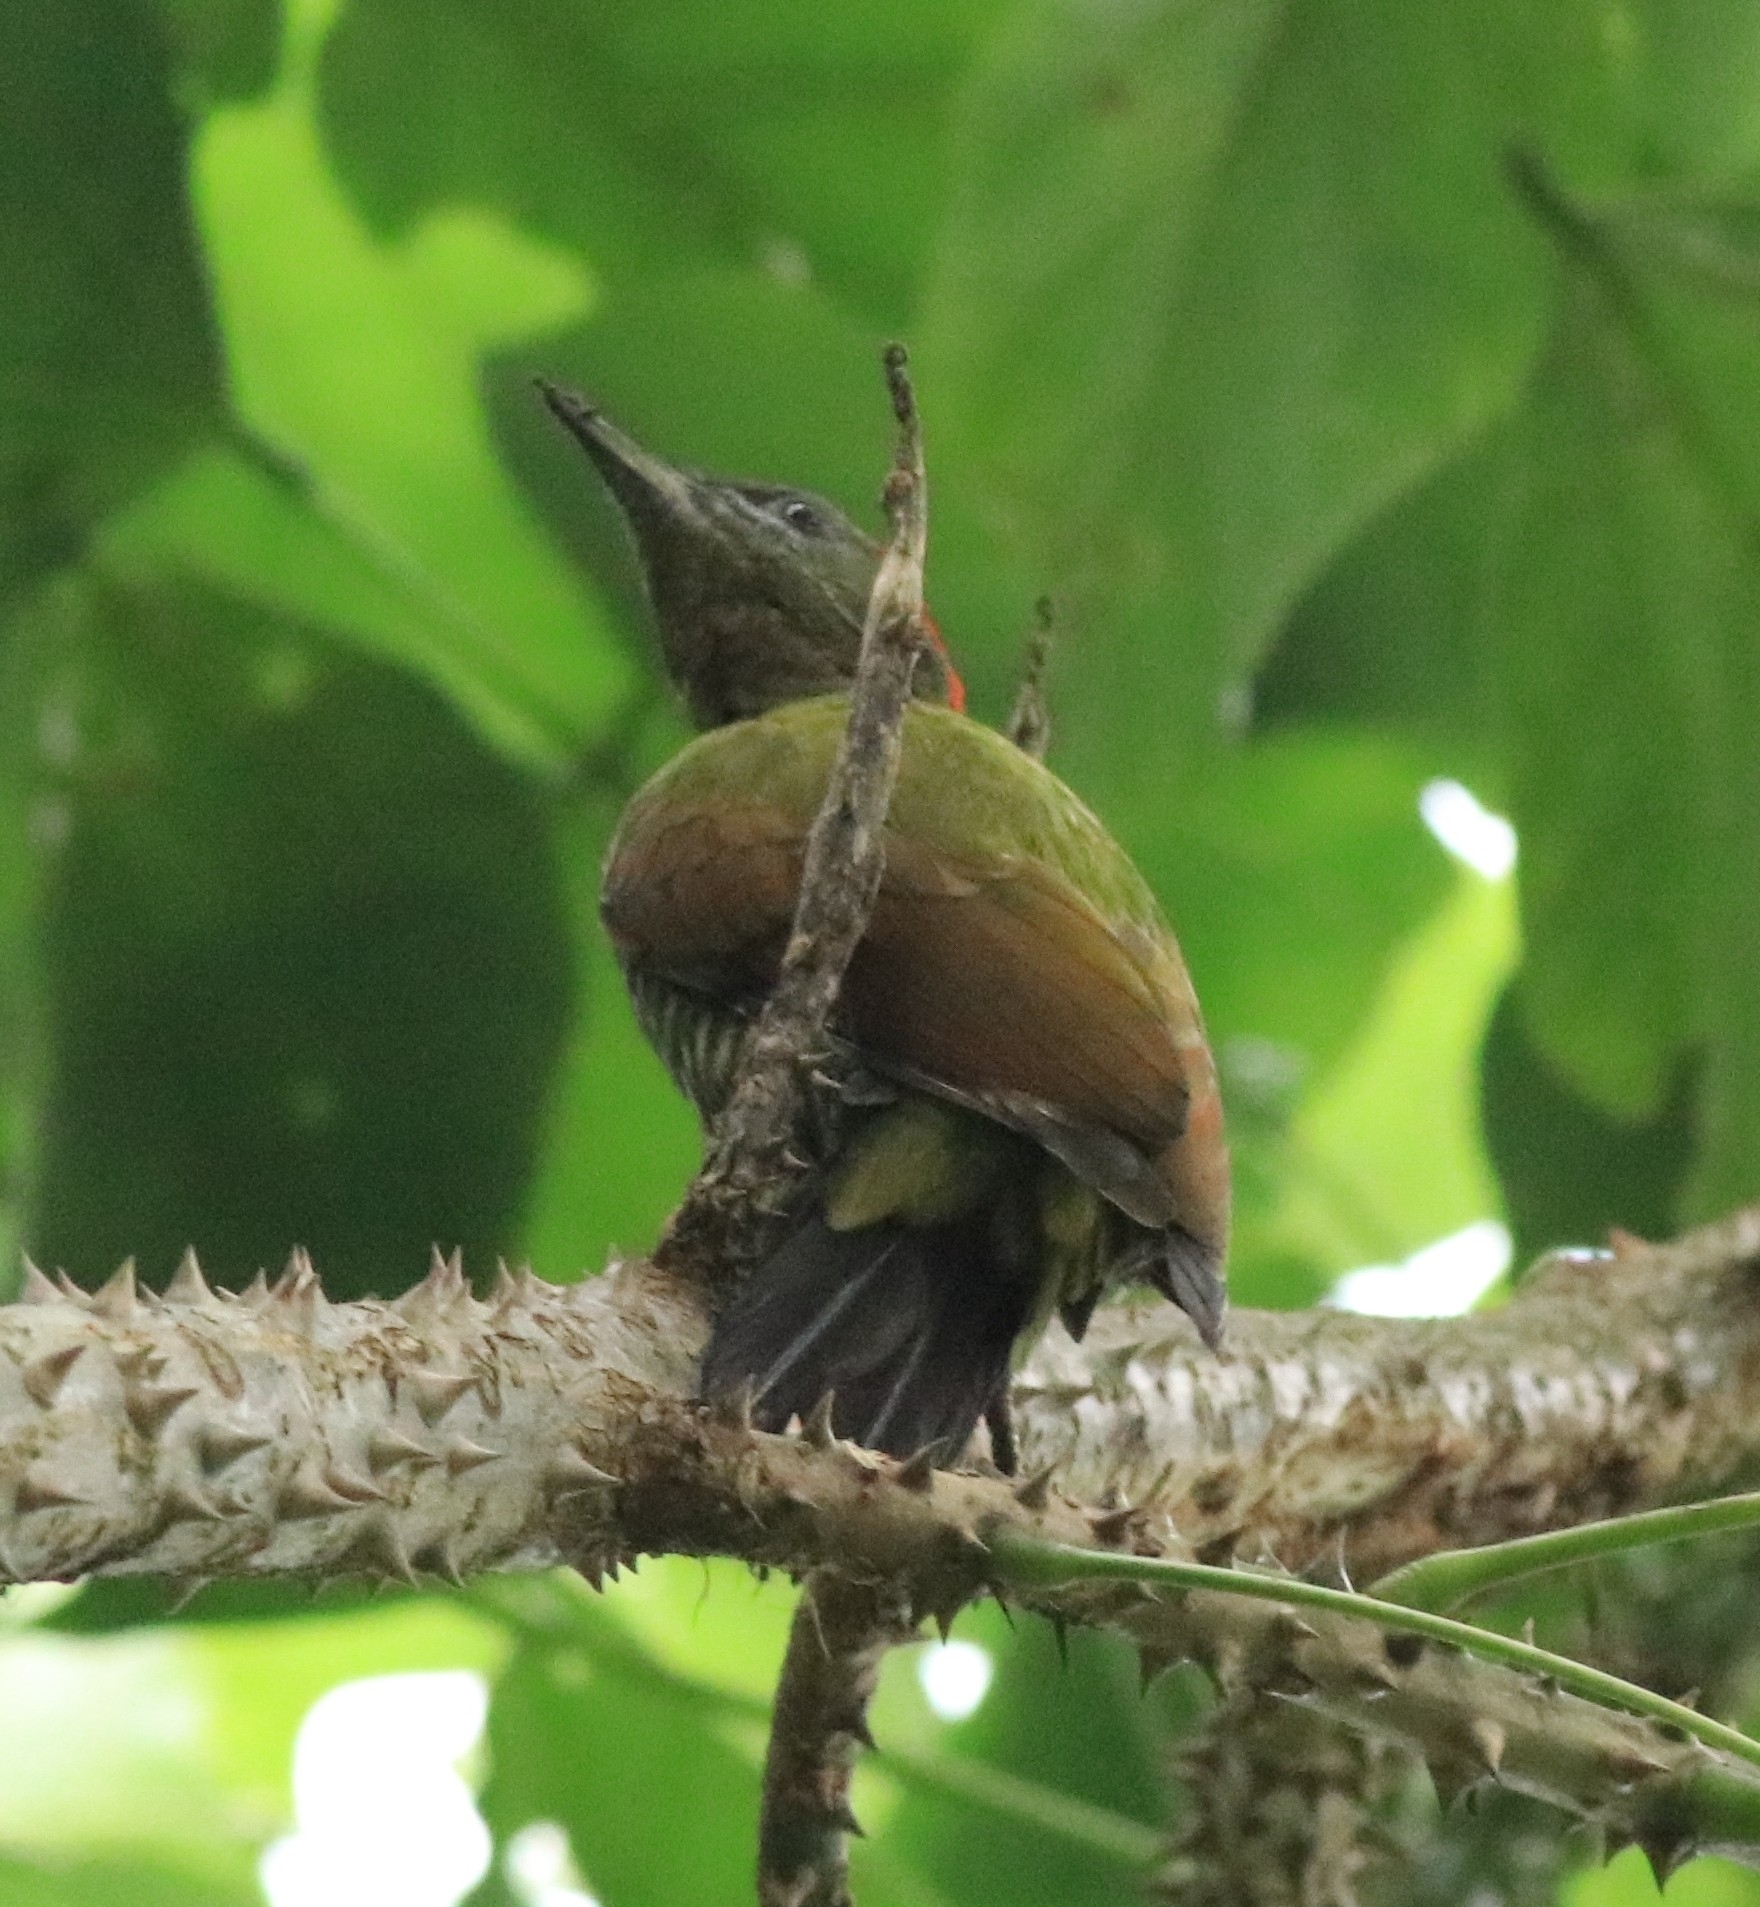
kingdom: Animalia
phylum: Chordata
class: Aves
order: Piciformes
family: Picidae
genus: Picus
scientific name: Picus chlorolophus
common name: Lesser yellownape
